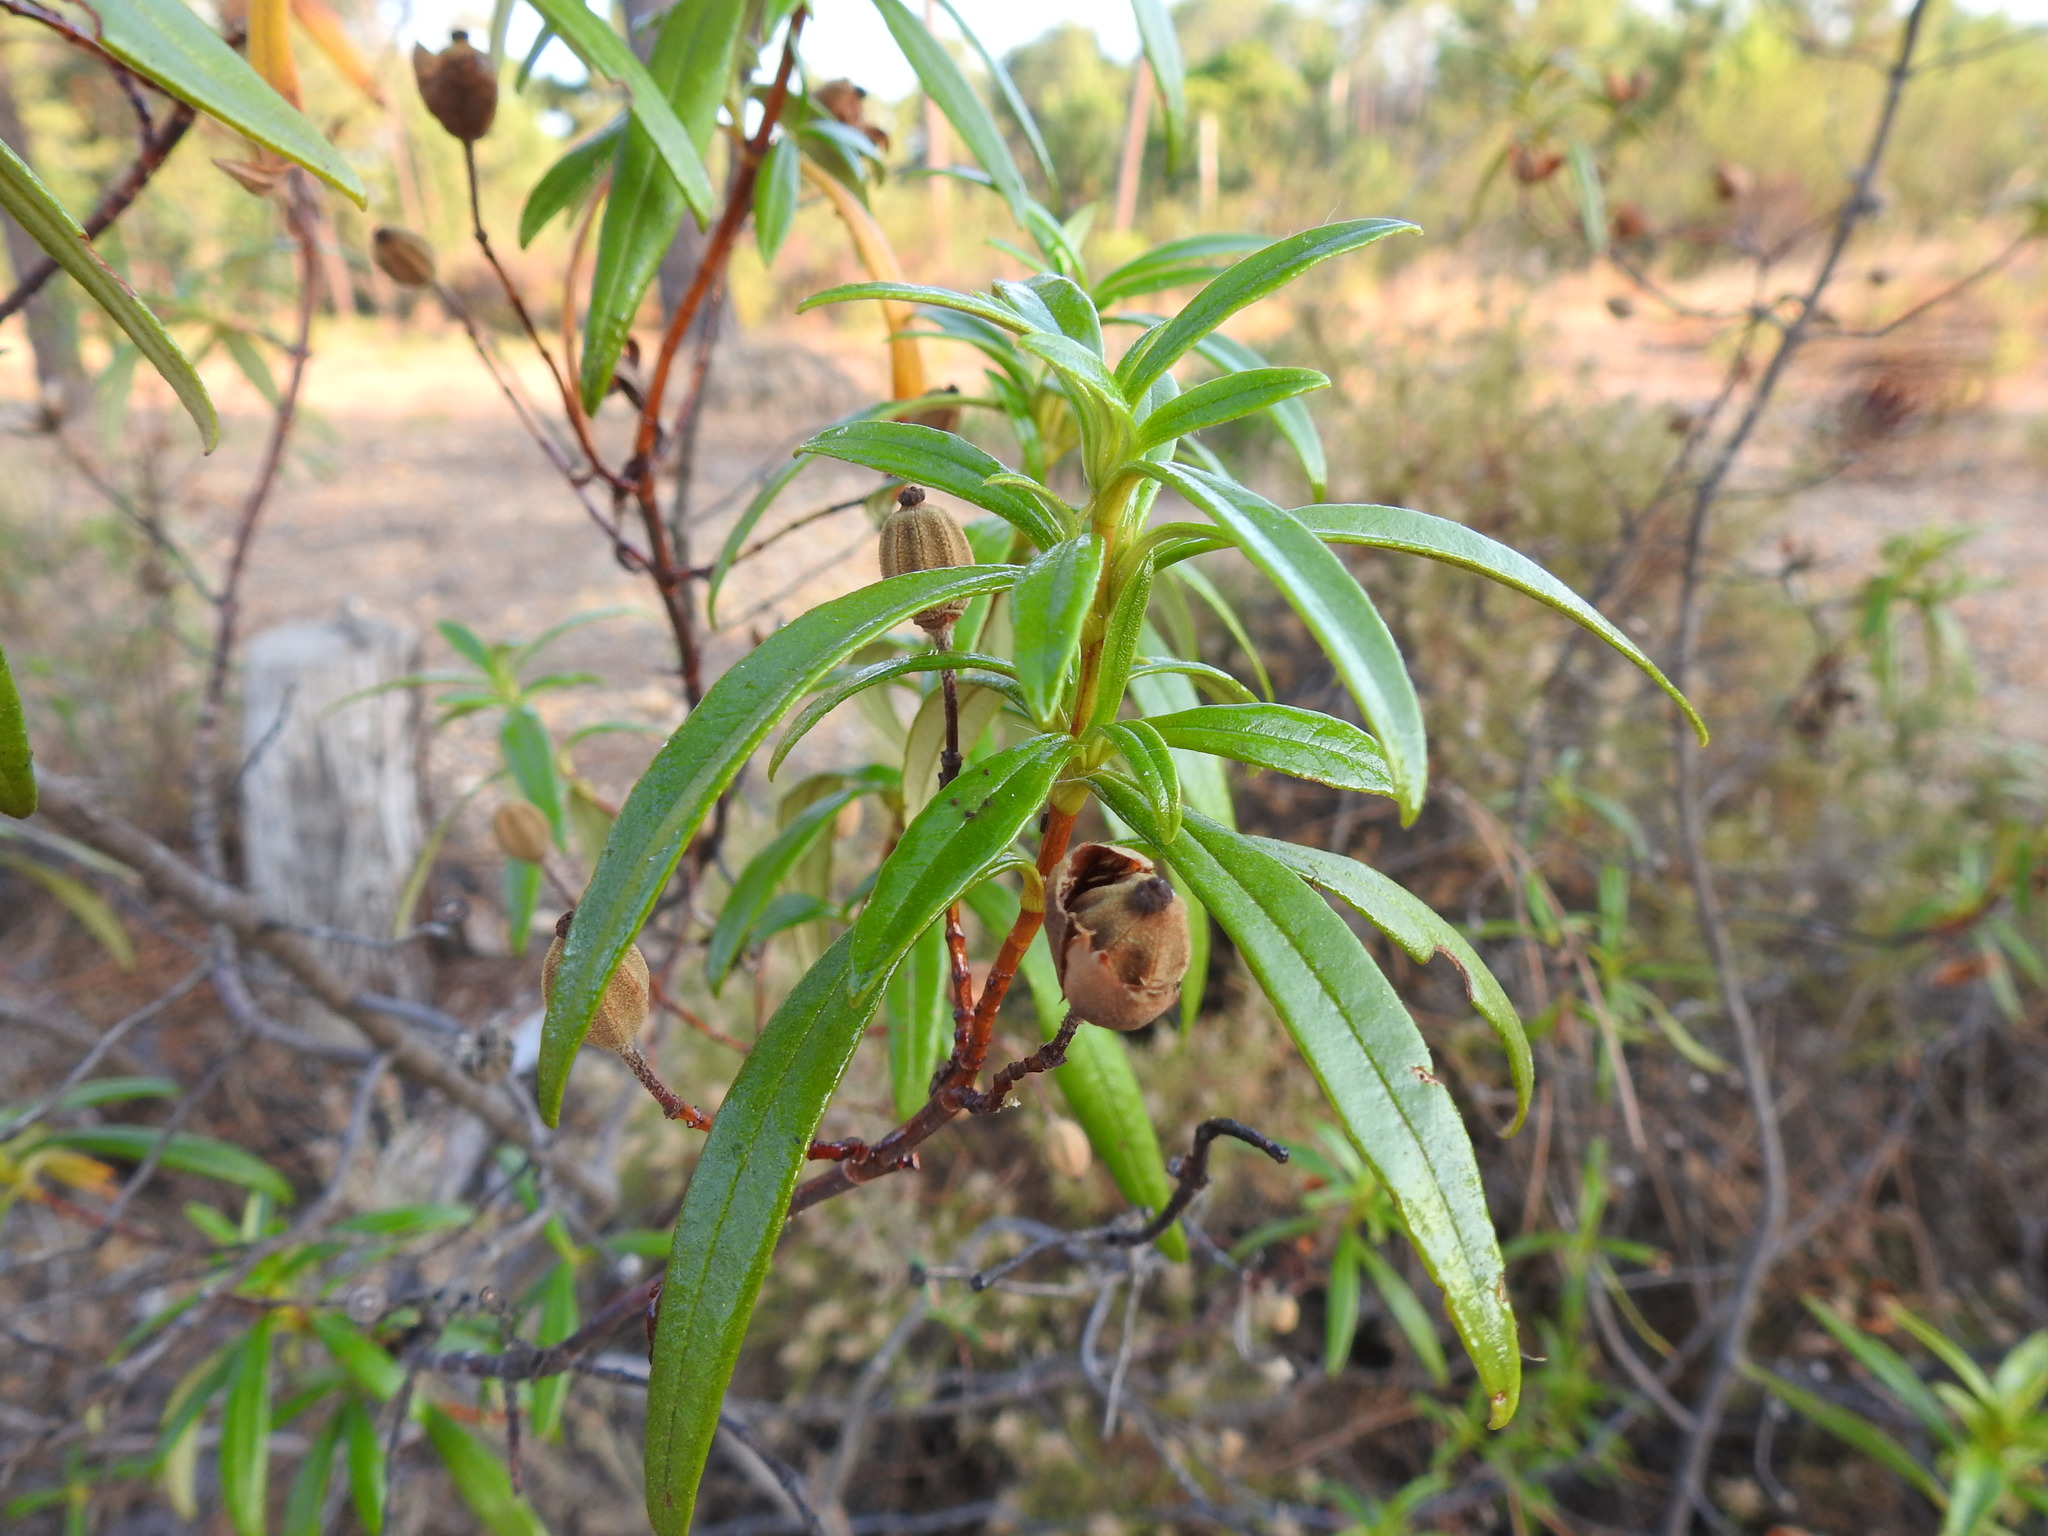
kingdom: Plantae
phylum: Tracheophyta
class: Magnoliopsida
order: Malvales
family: Cistaceae
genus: Cistus
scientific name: Cistus ladanifer
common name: Common gum cistus
